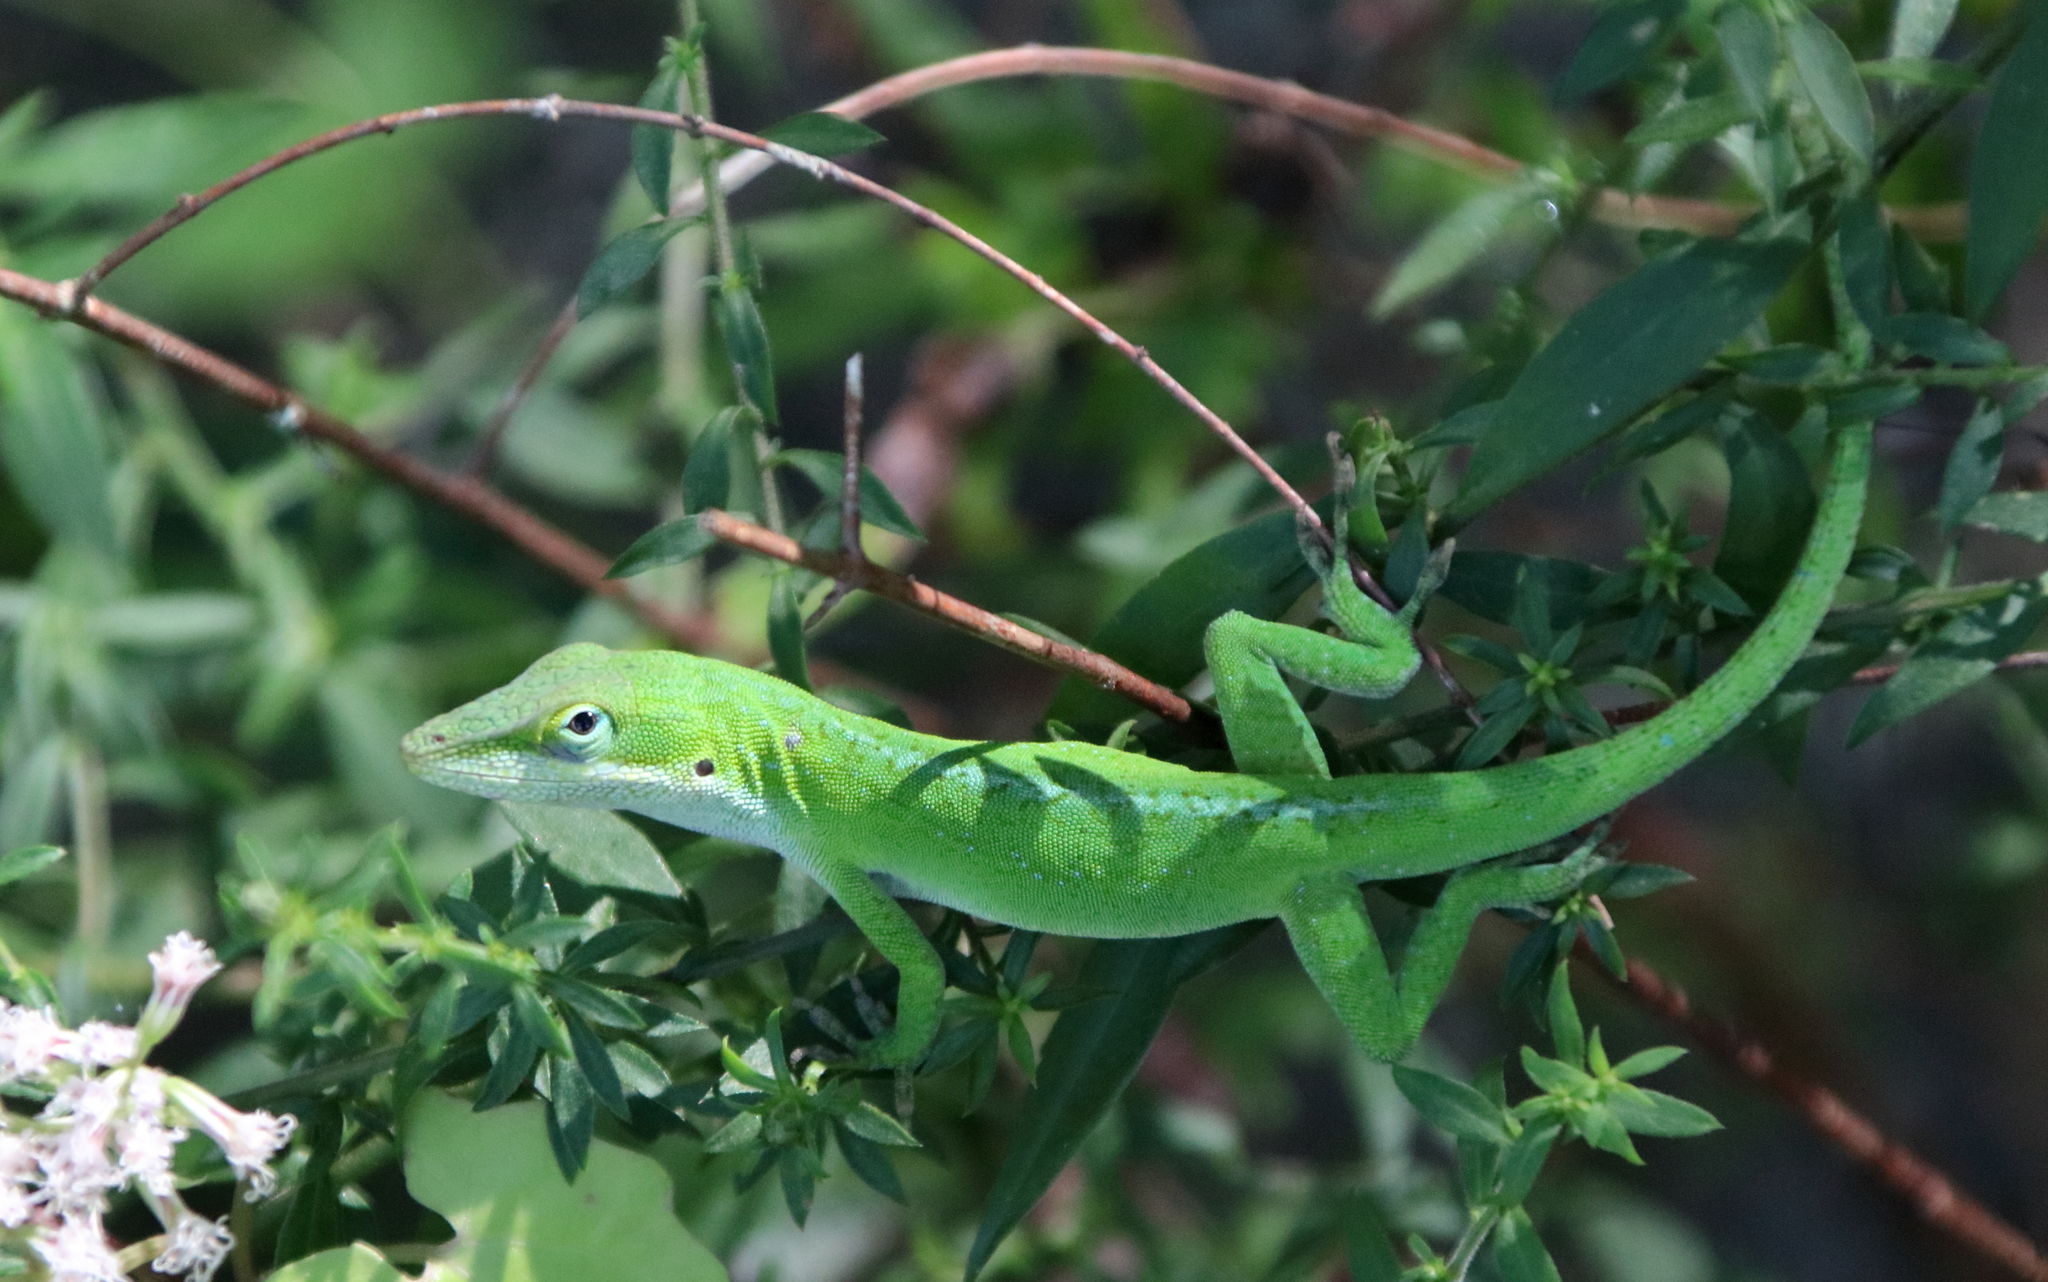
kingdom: Animalia
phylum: Chordata
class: Squamata
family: Dactyloidae
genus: Anolis
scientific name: Anolis carolinensis
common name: Green anole
